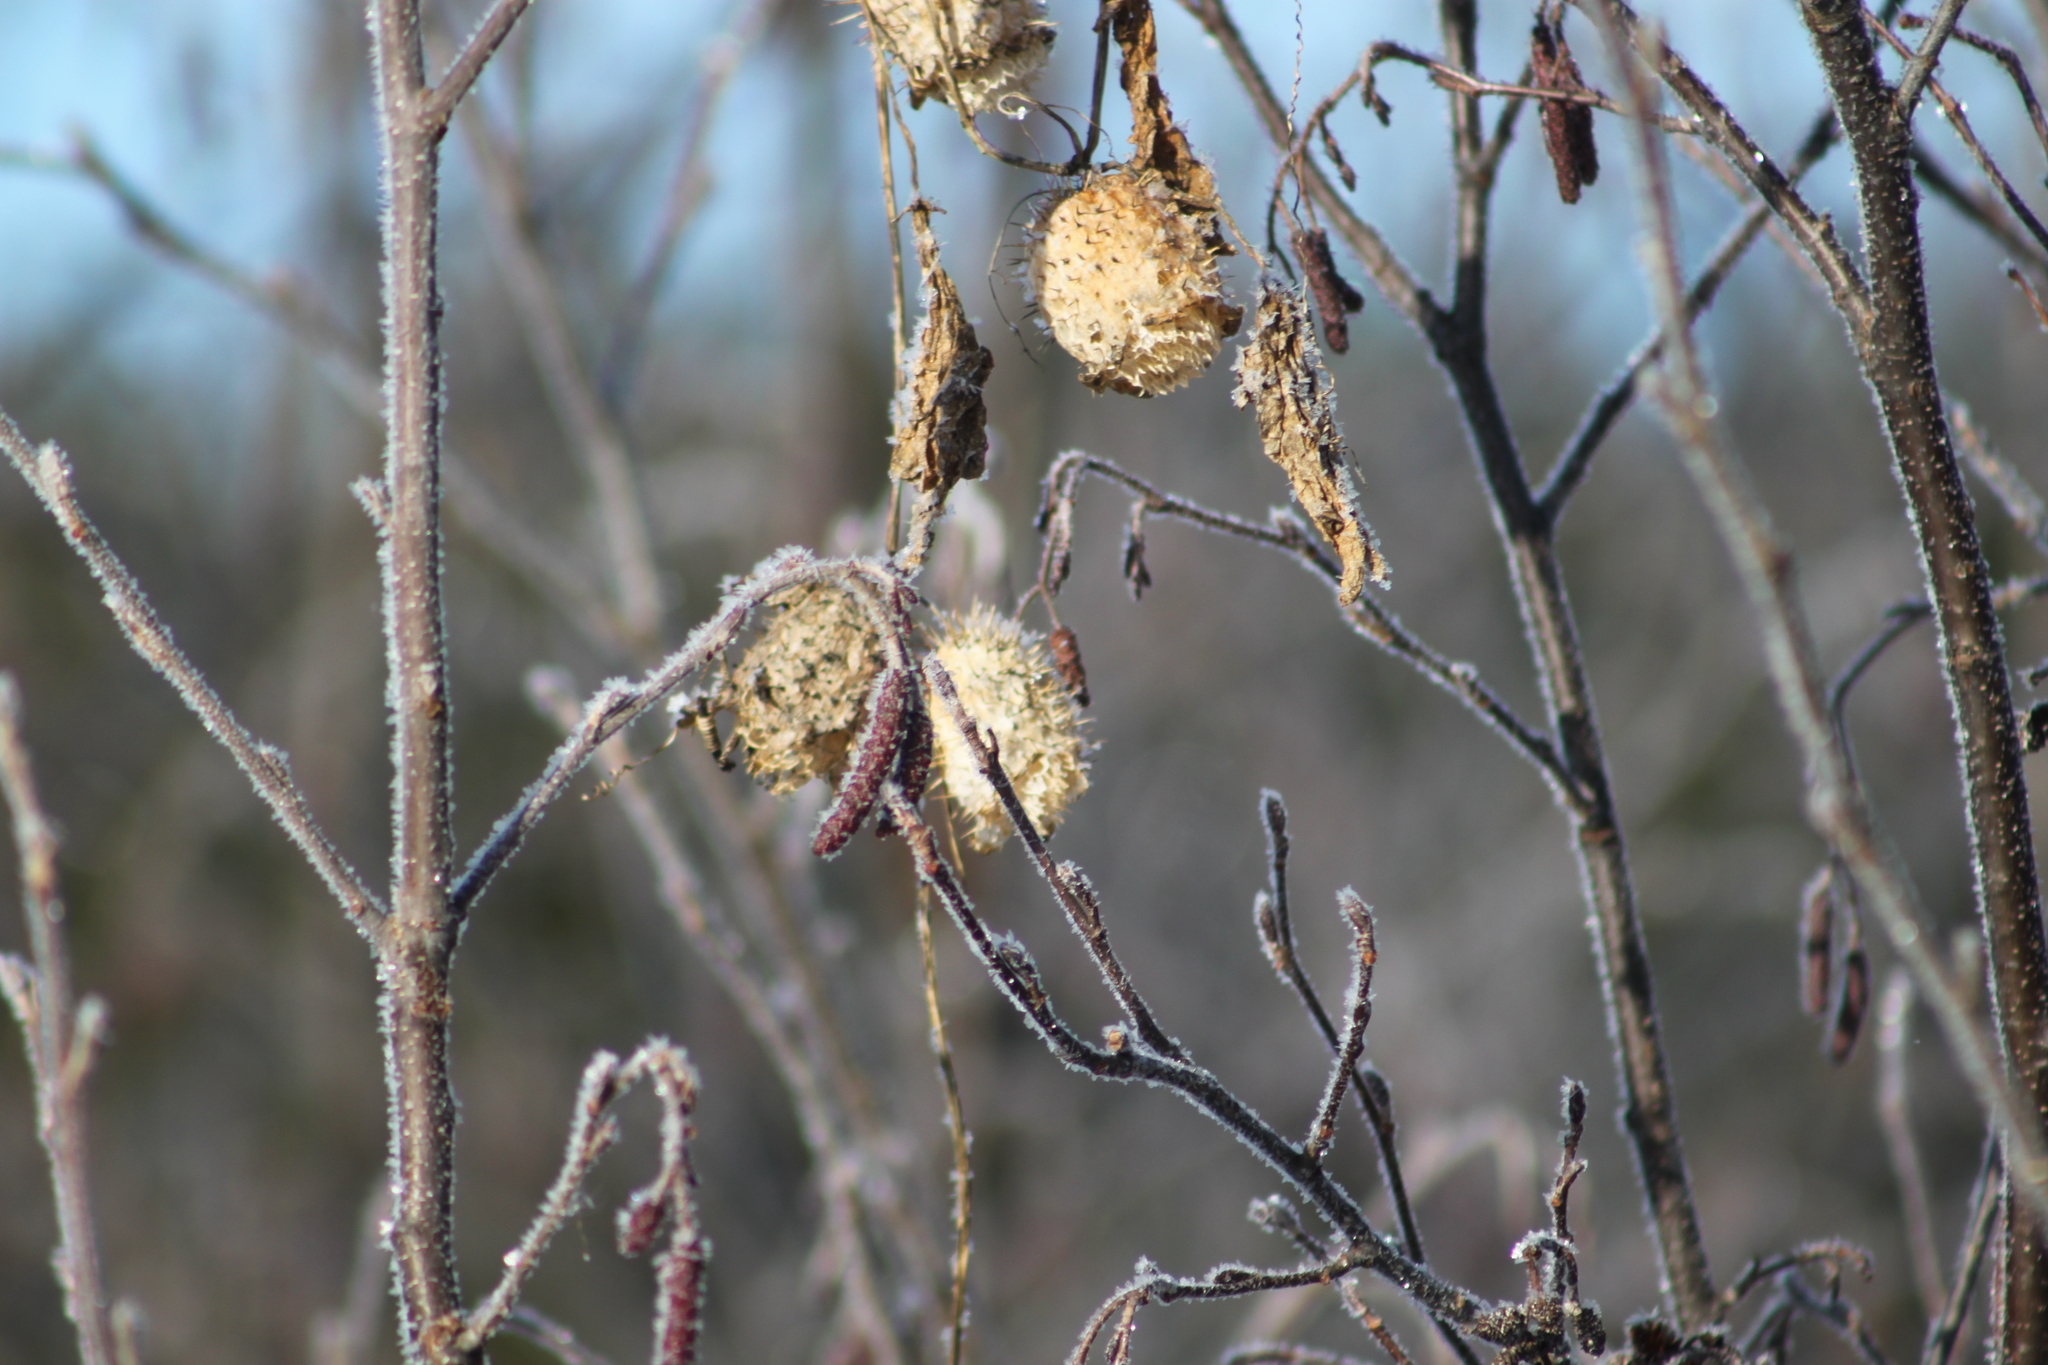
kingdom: Plantae
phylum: Tracheophyta
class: Magnoliopsida
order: Cucurbitales
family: Cucurbitaceae
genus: Echinocystis
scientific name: Echinocystis lobata
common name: Wild cucumber
